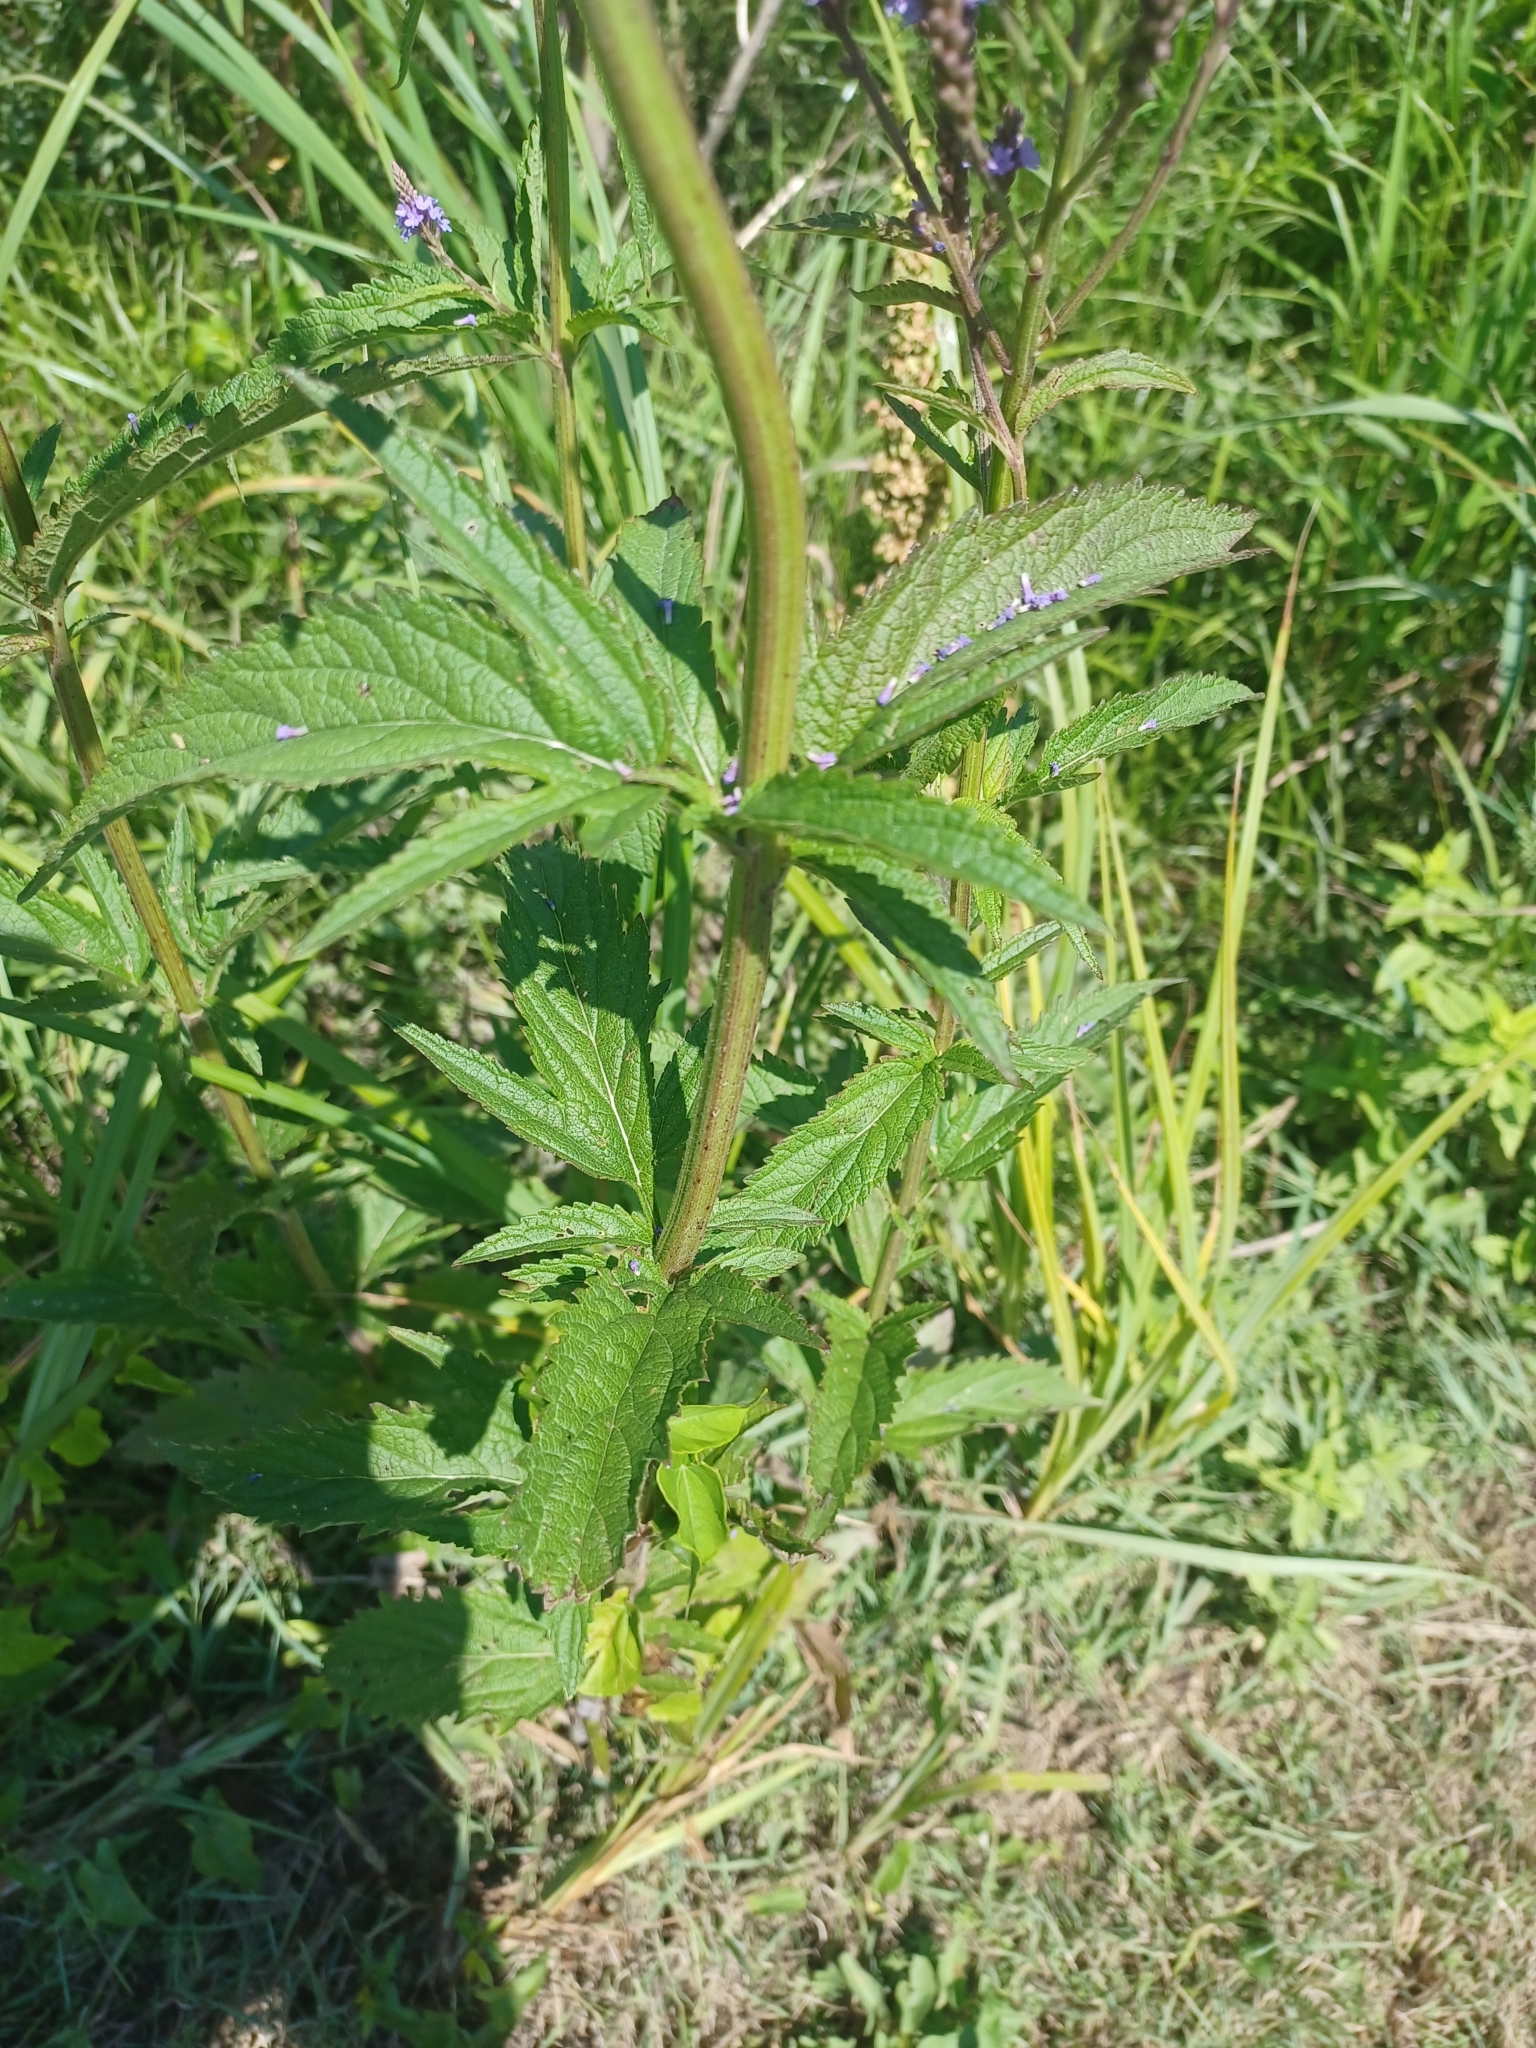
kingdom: Plantae
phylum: Tracheophyta
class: Magnoliopsida
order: Lamiales
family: Verbenaceae
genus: Verbena
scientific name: Verbena hastata
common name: American blue vervain
